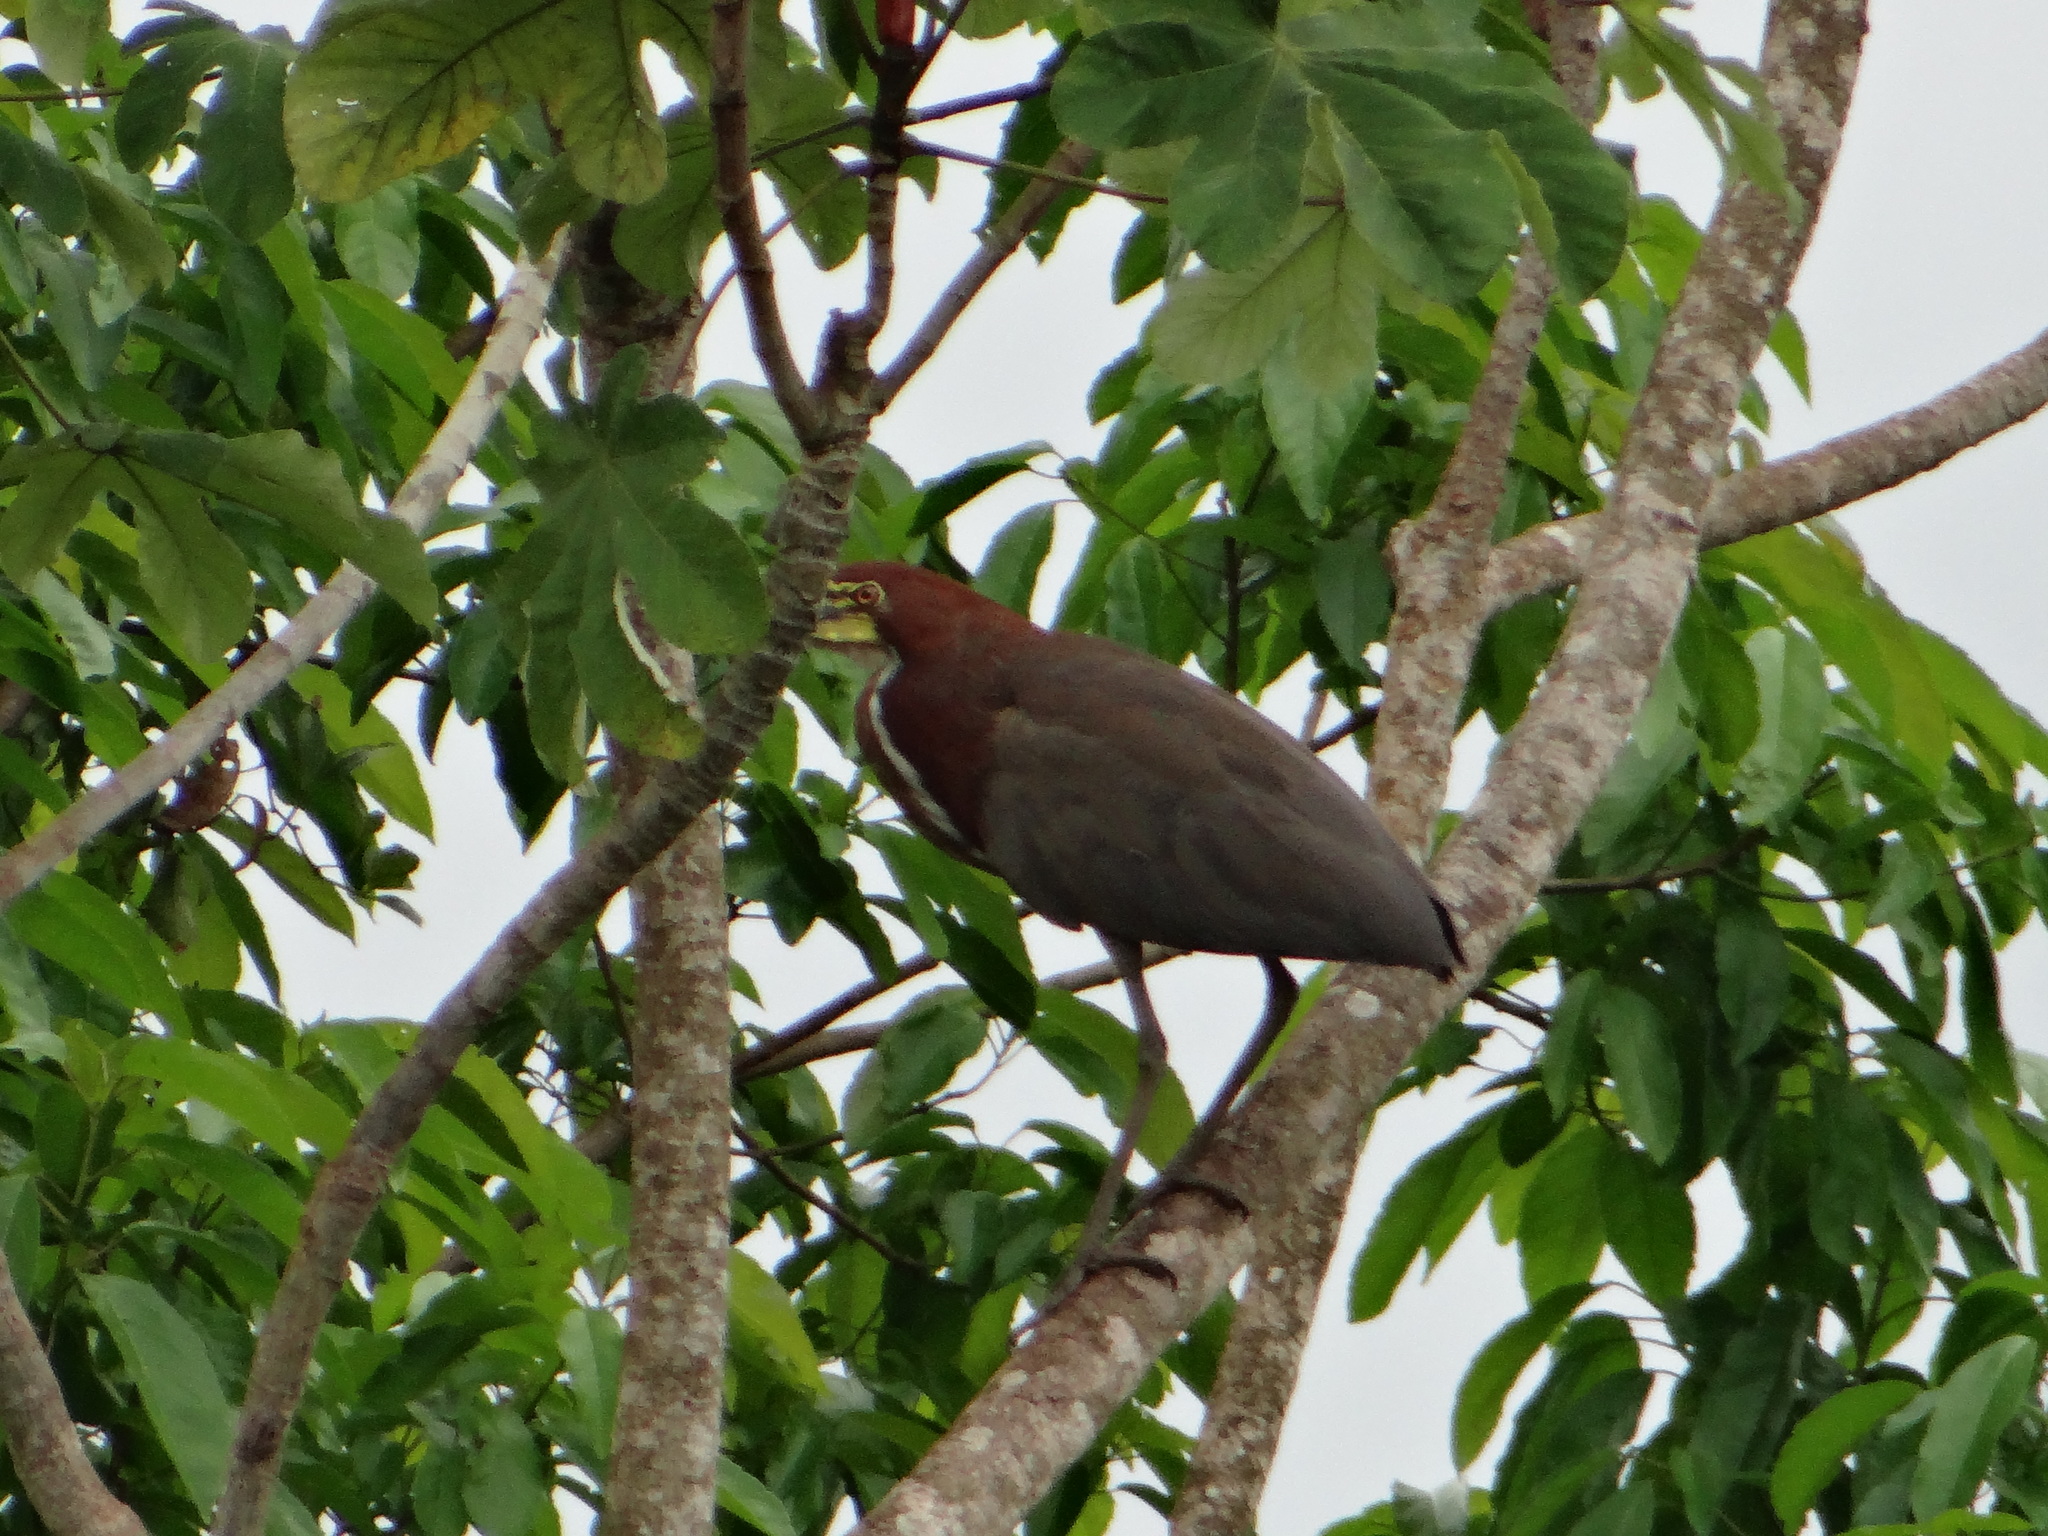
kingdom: Animalia
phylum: Chordata
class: Aves
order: Pelecaniformes
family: Ardeidae
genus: Tigrisoma
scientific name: Tigrisoma lineatum
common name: Rufescent tiger-heron
